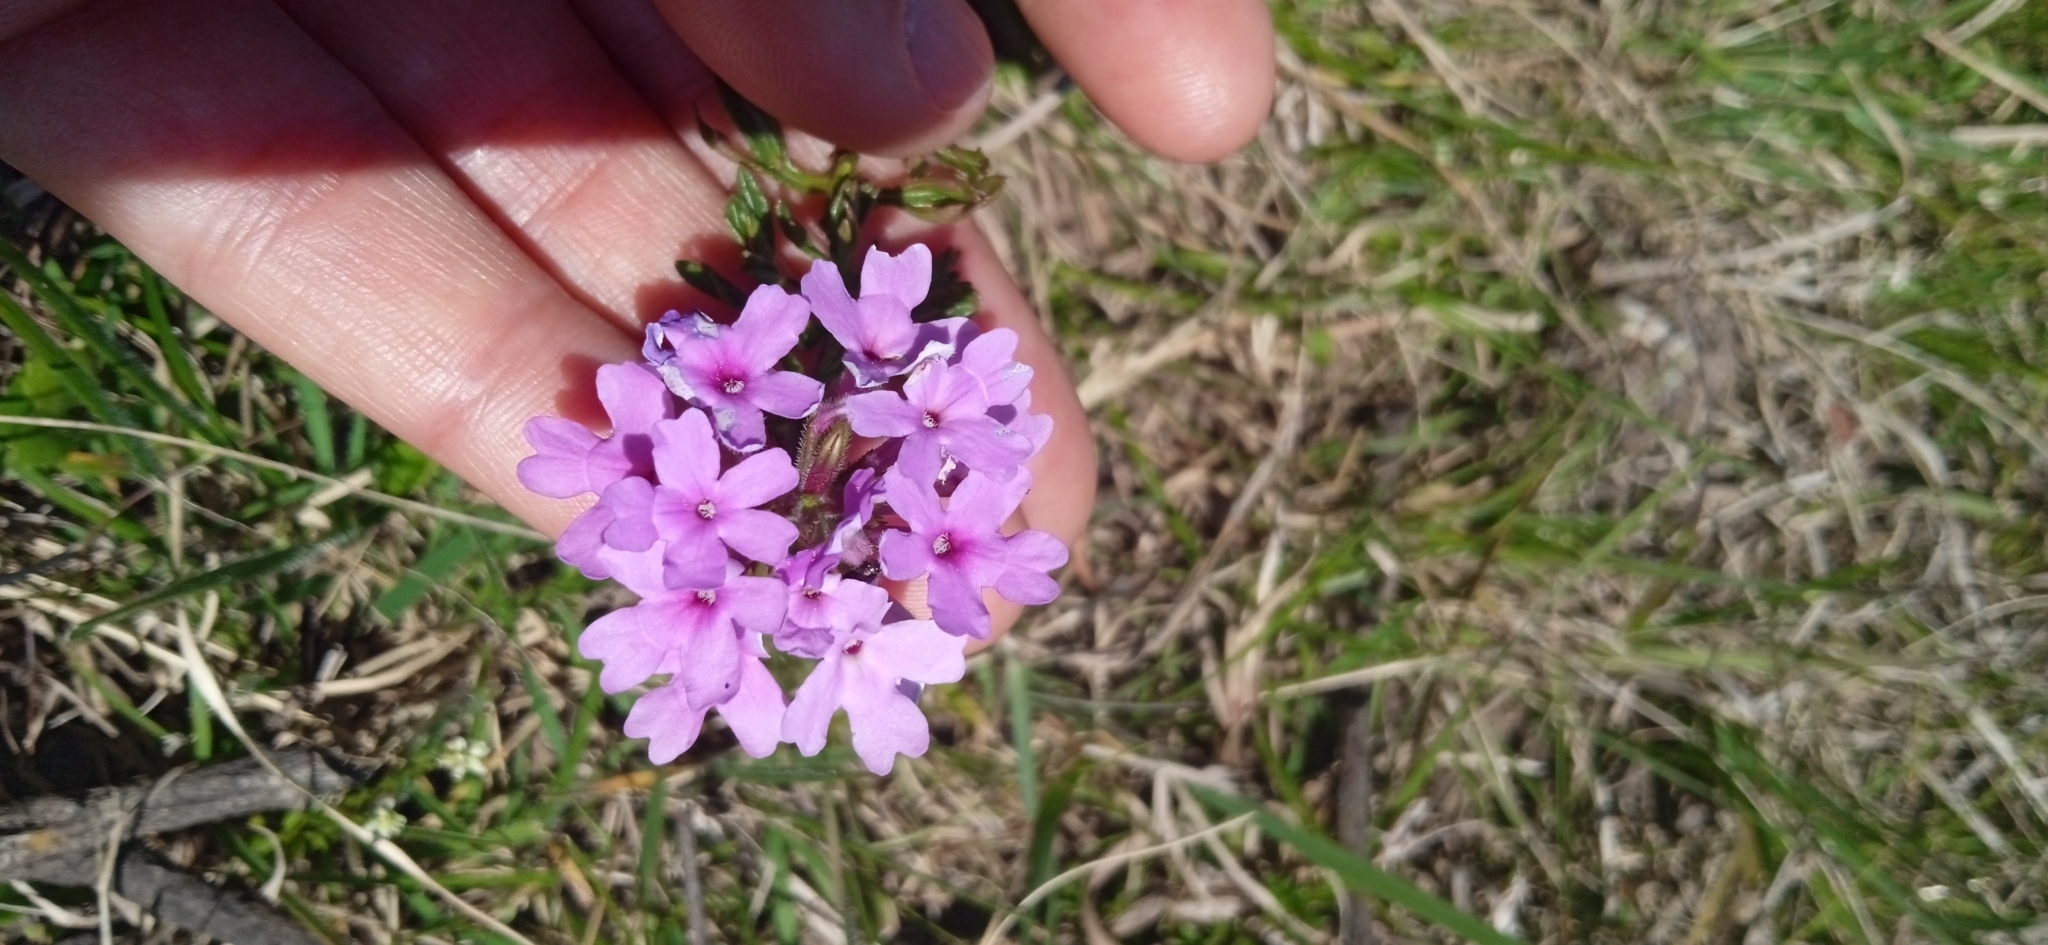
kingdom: Plantae
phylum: Tracheophyta
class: Magnoliopsida
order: Lamiales
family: Verbenaceae
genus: Verbena
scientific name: Verbena selloi
